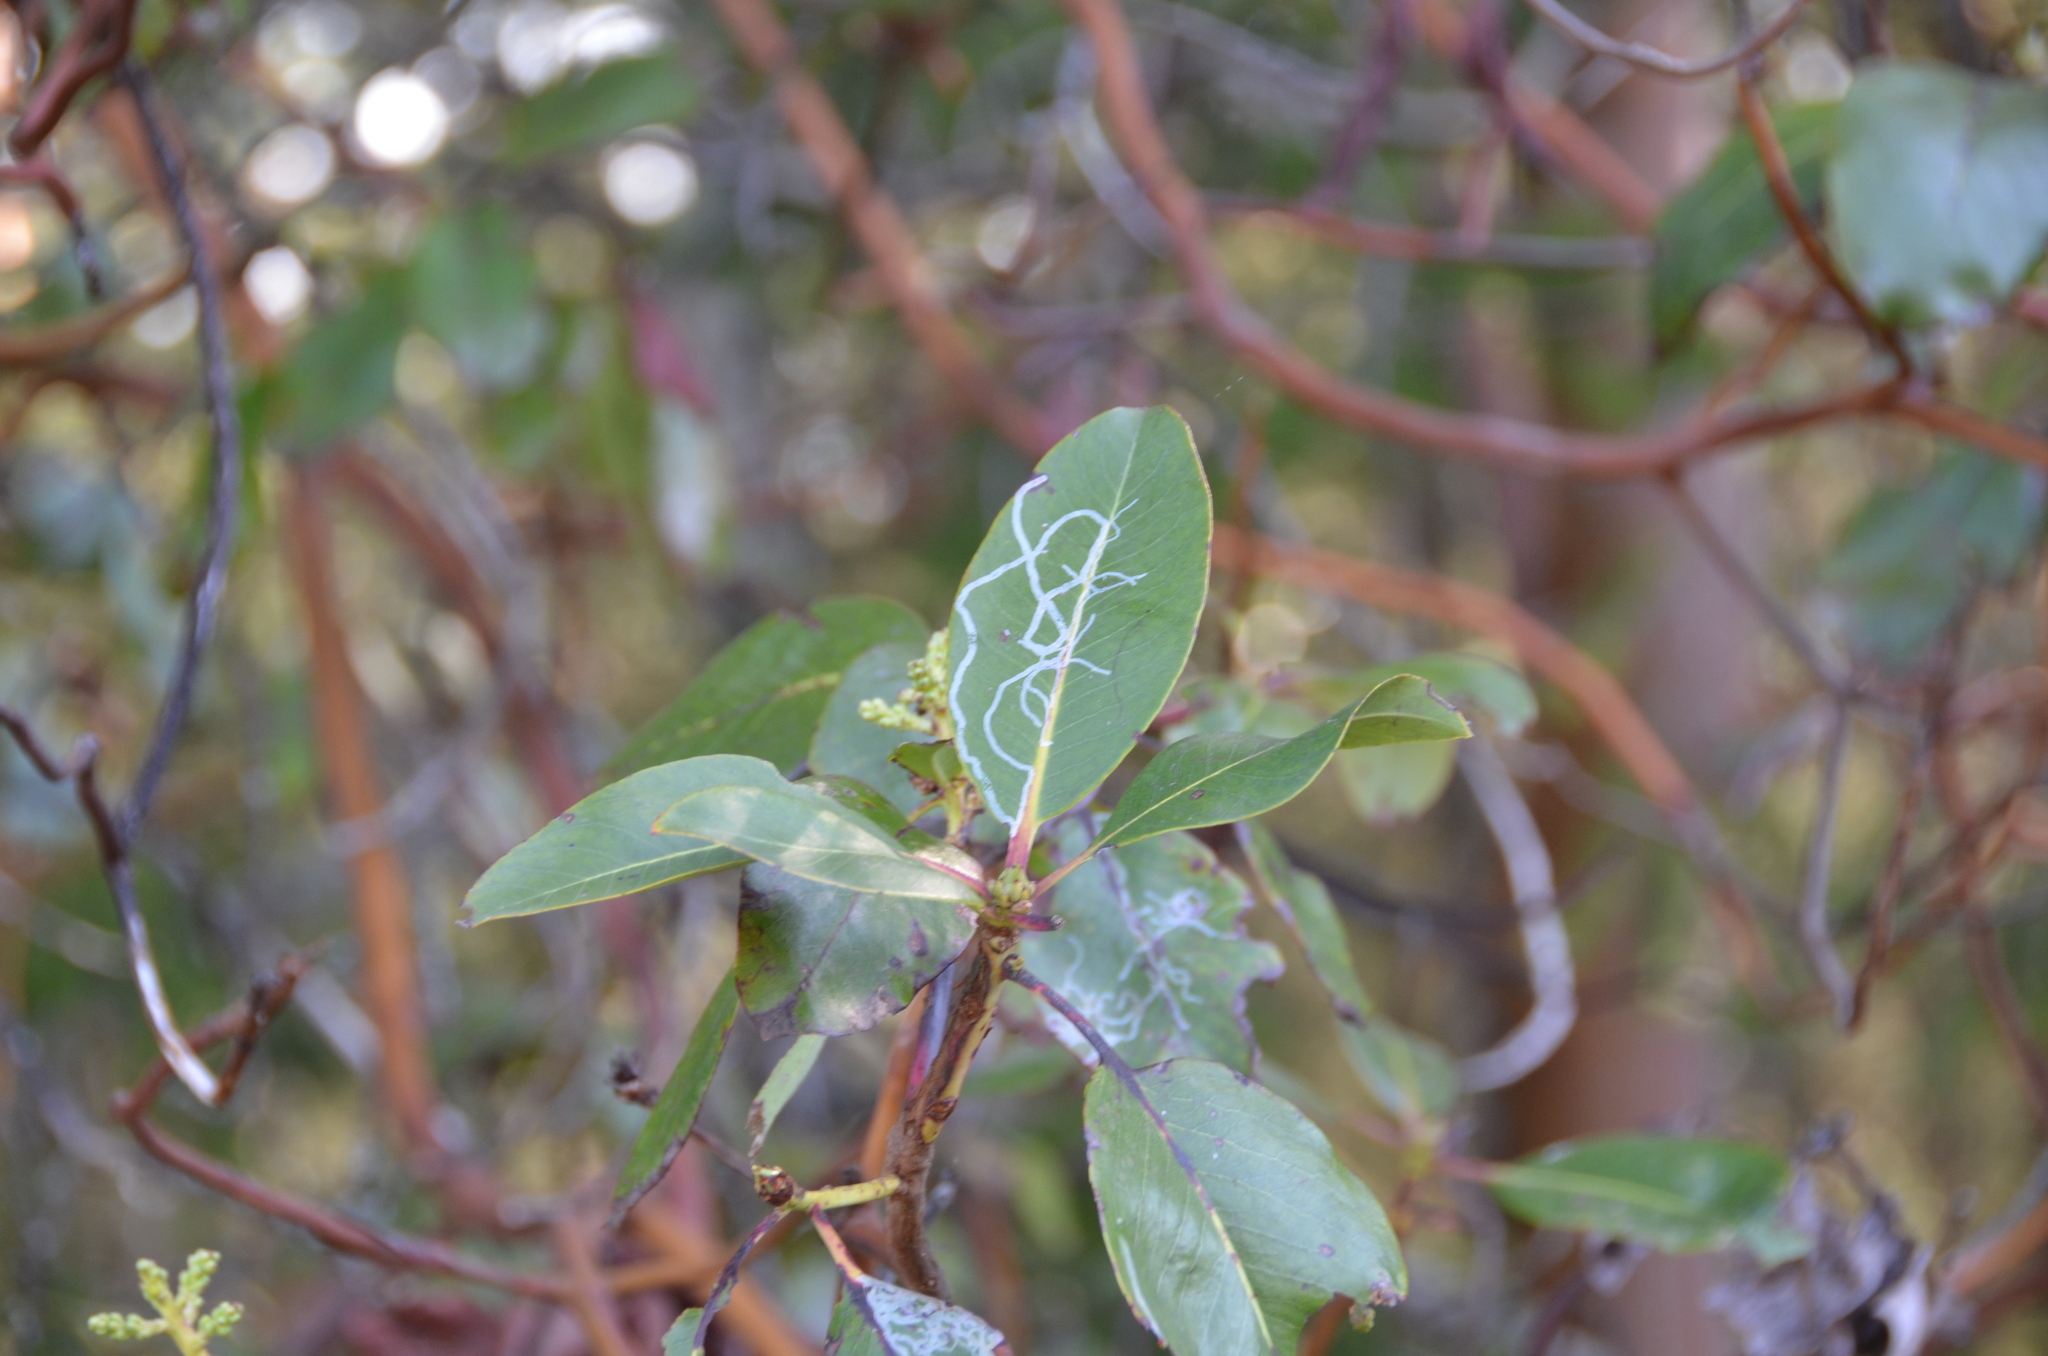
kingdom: Animalia
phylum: Arthropoda
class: Insecta
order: Lepidoptera
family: Gracillariidae
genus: Marmara
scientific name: Marmara arbutiella
